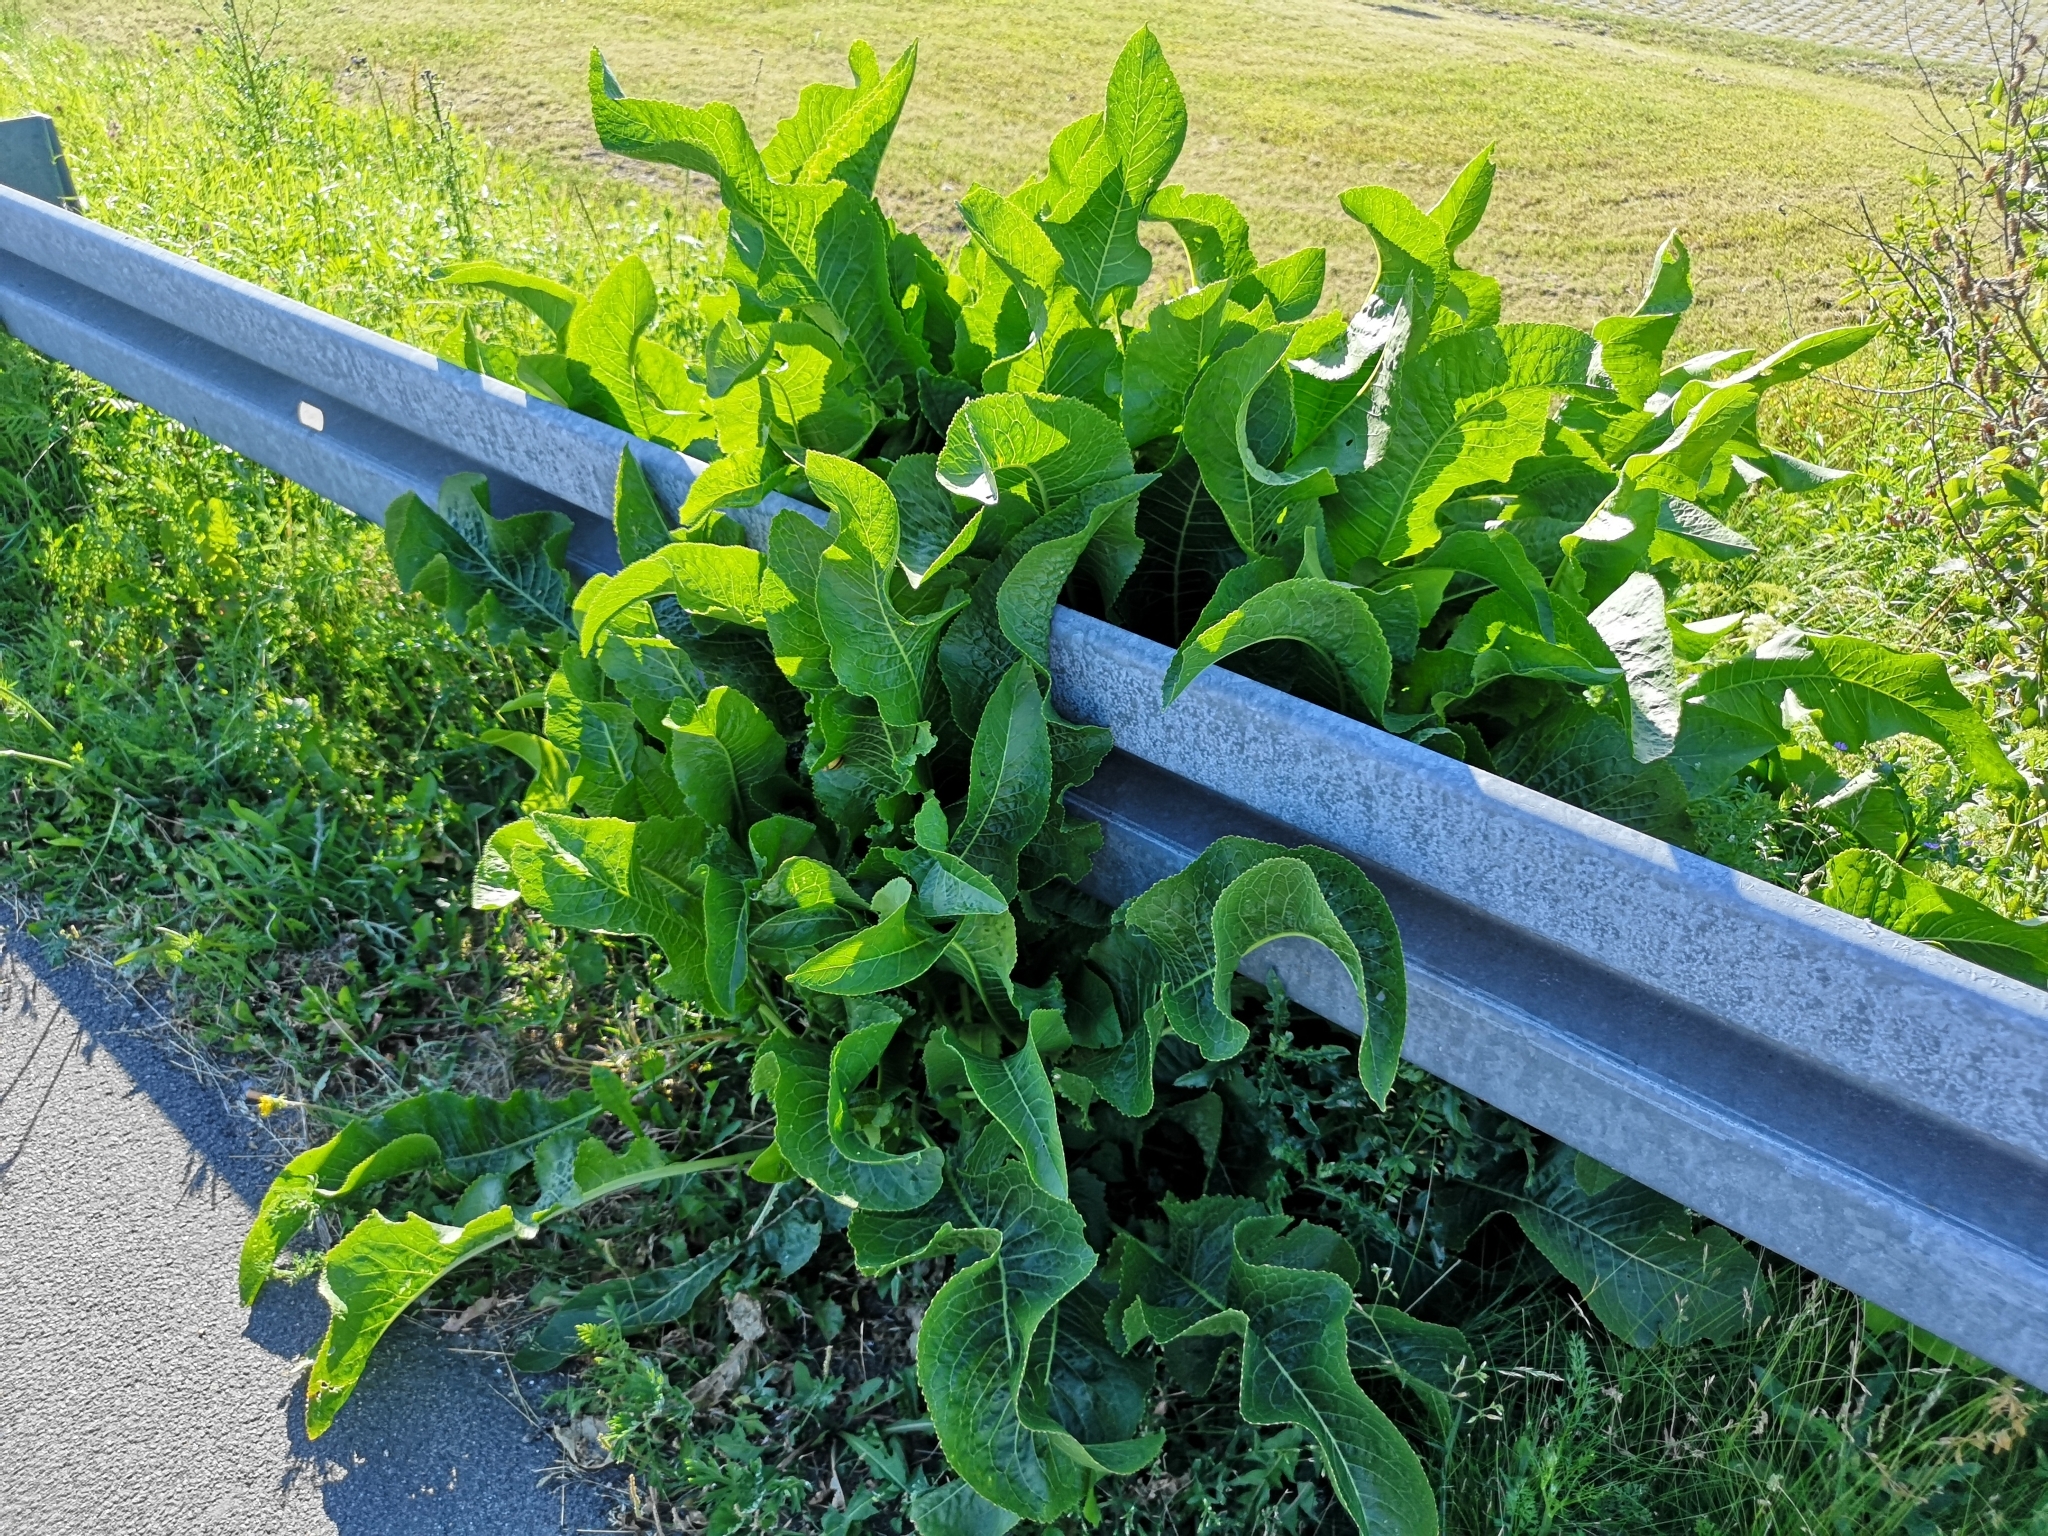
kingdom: Plantae
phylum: Tracheophyta
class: Magnoliopsida
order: Brassicales
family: Brassicaceae
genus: Armoracia
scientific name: Armoracia rusticana
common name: Horseradish
